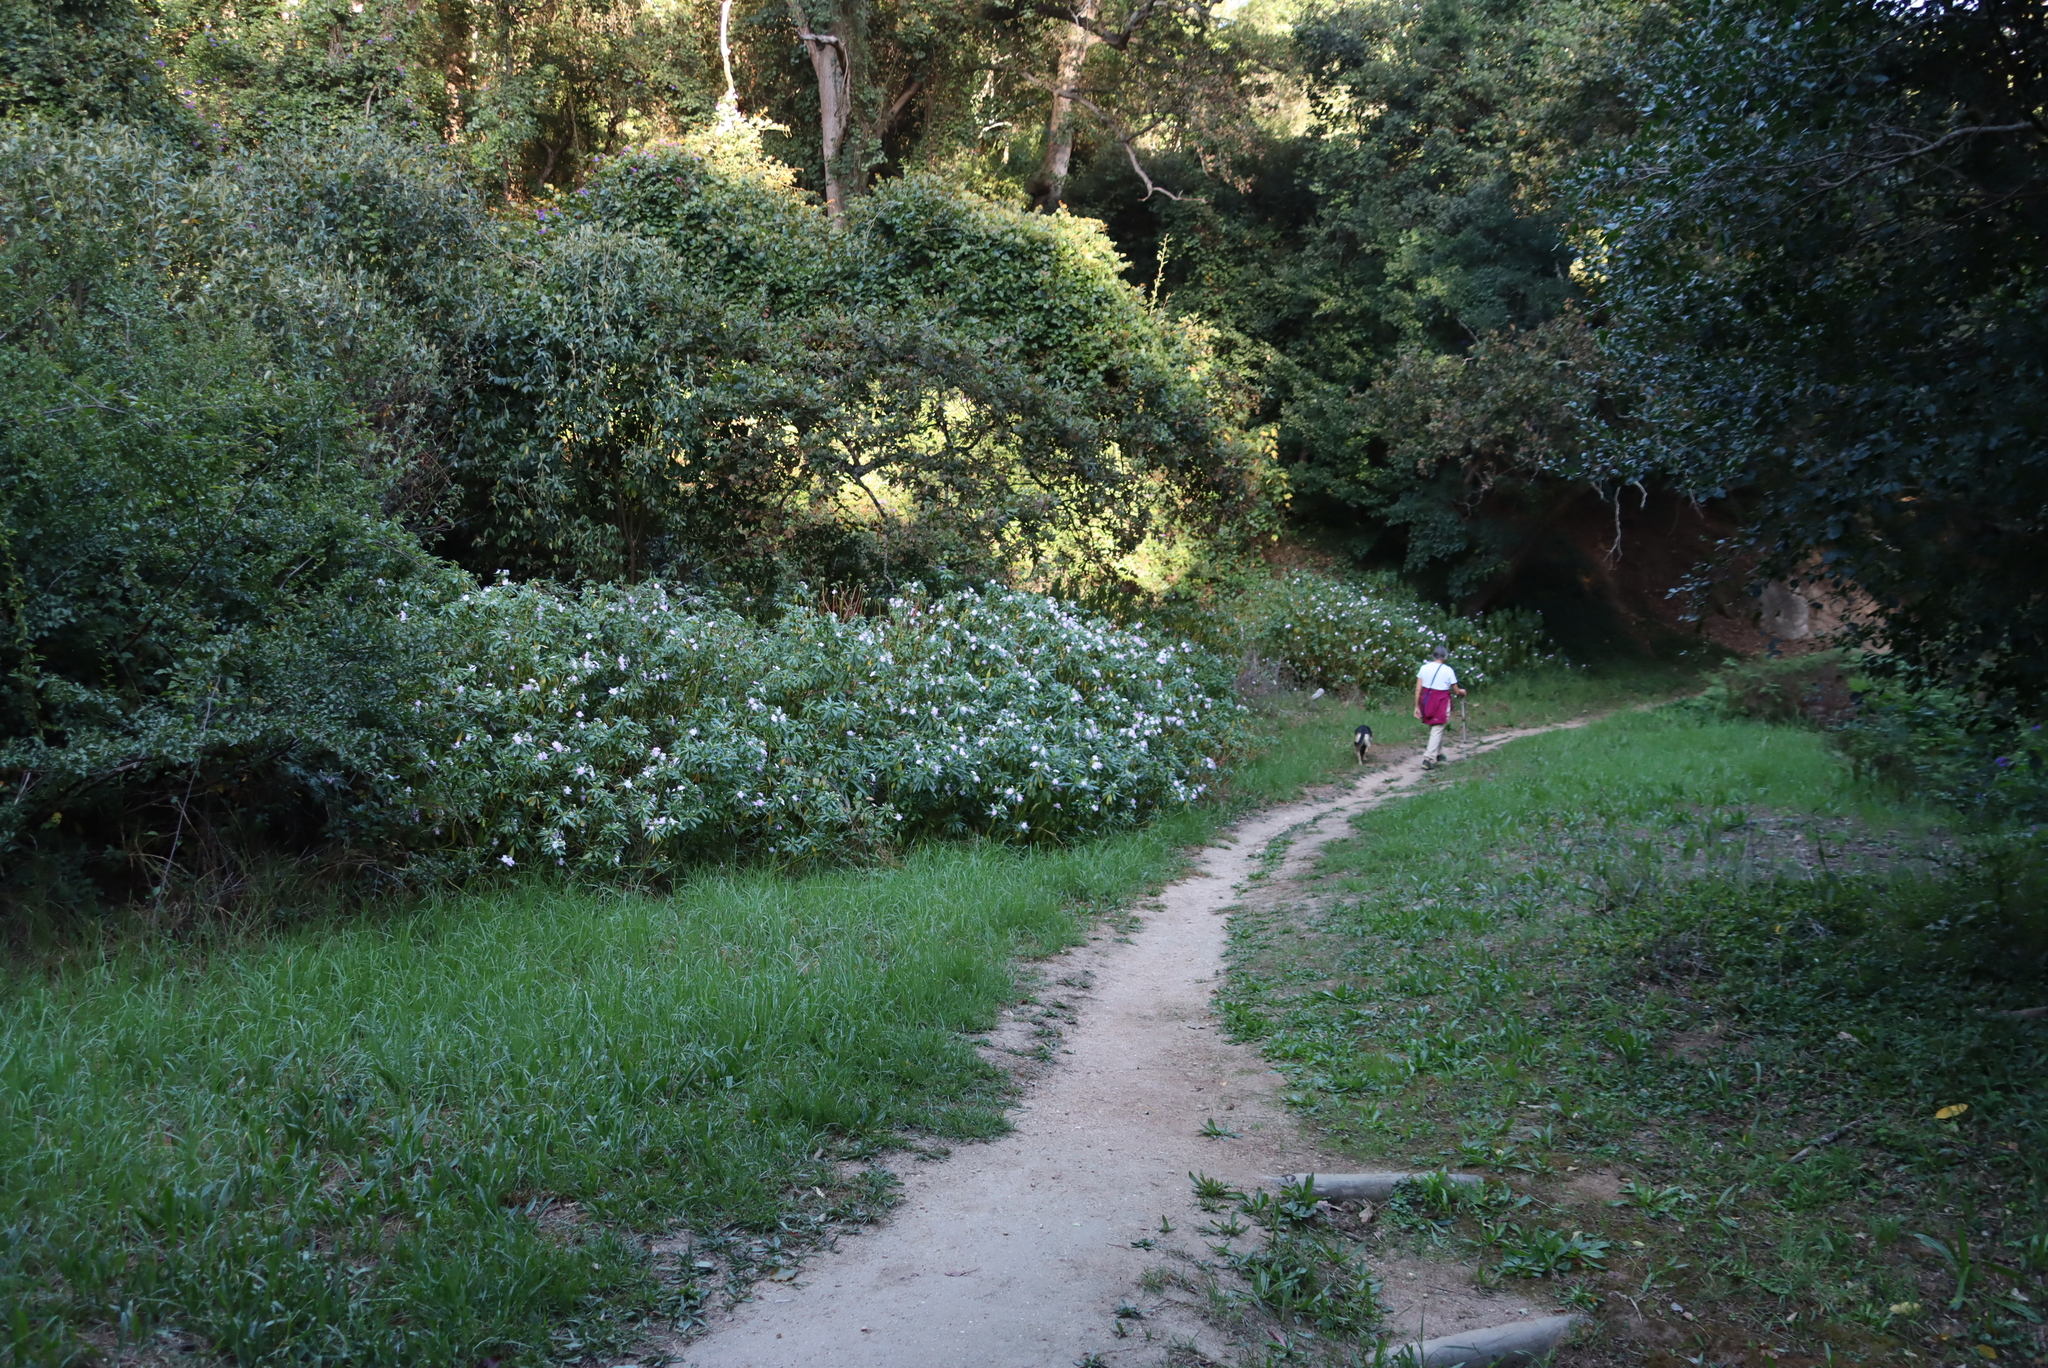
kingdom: Plantae
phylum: Tracheophyta
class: Magnoliopsida
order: Ericales
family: Balsaminaceae
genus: Impatiens
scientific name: Impatiens sodenii
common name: Oliver's touch-me-not
